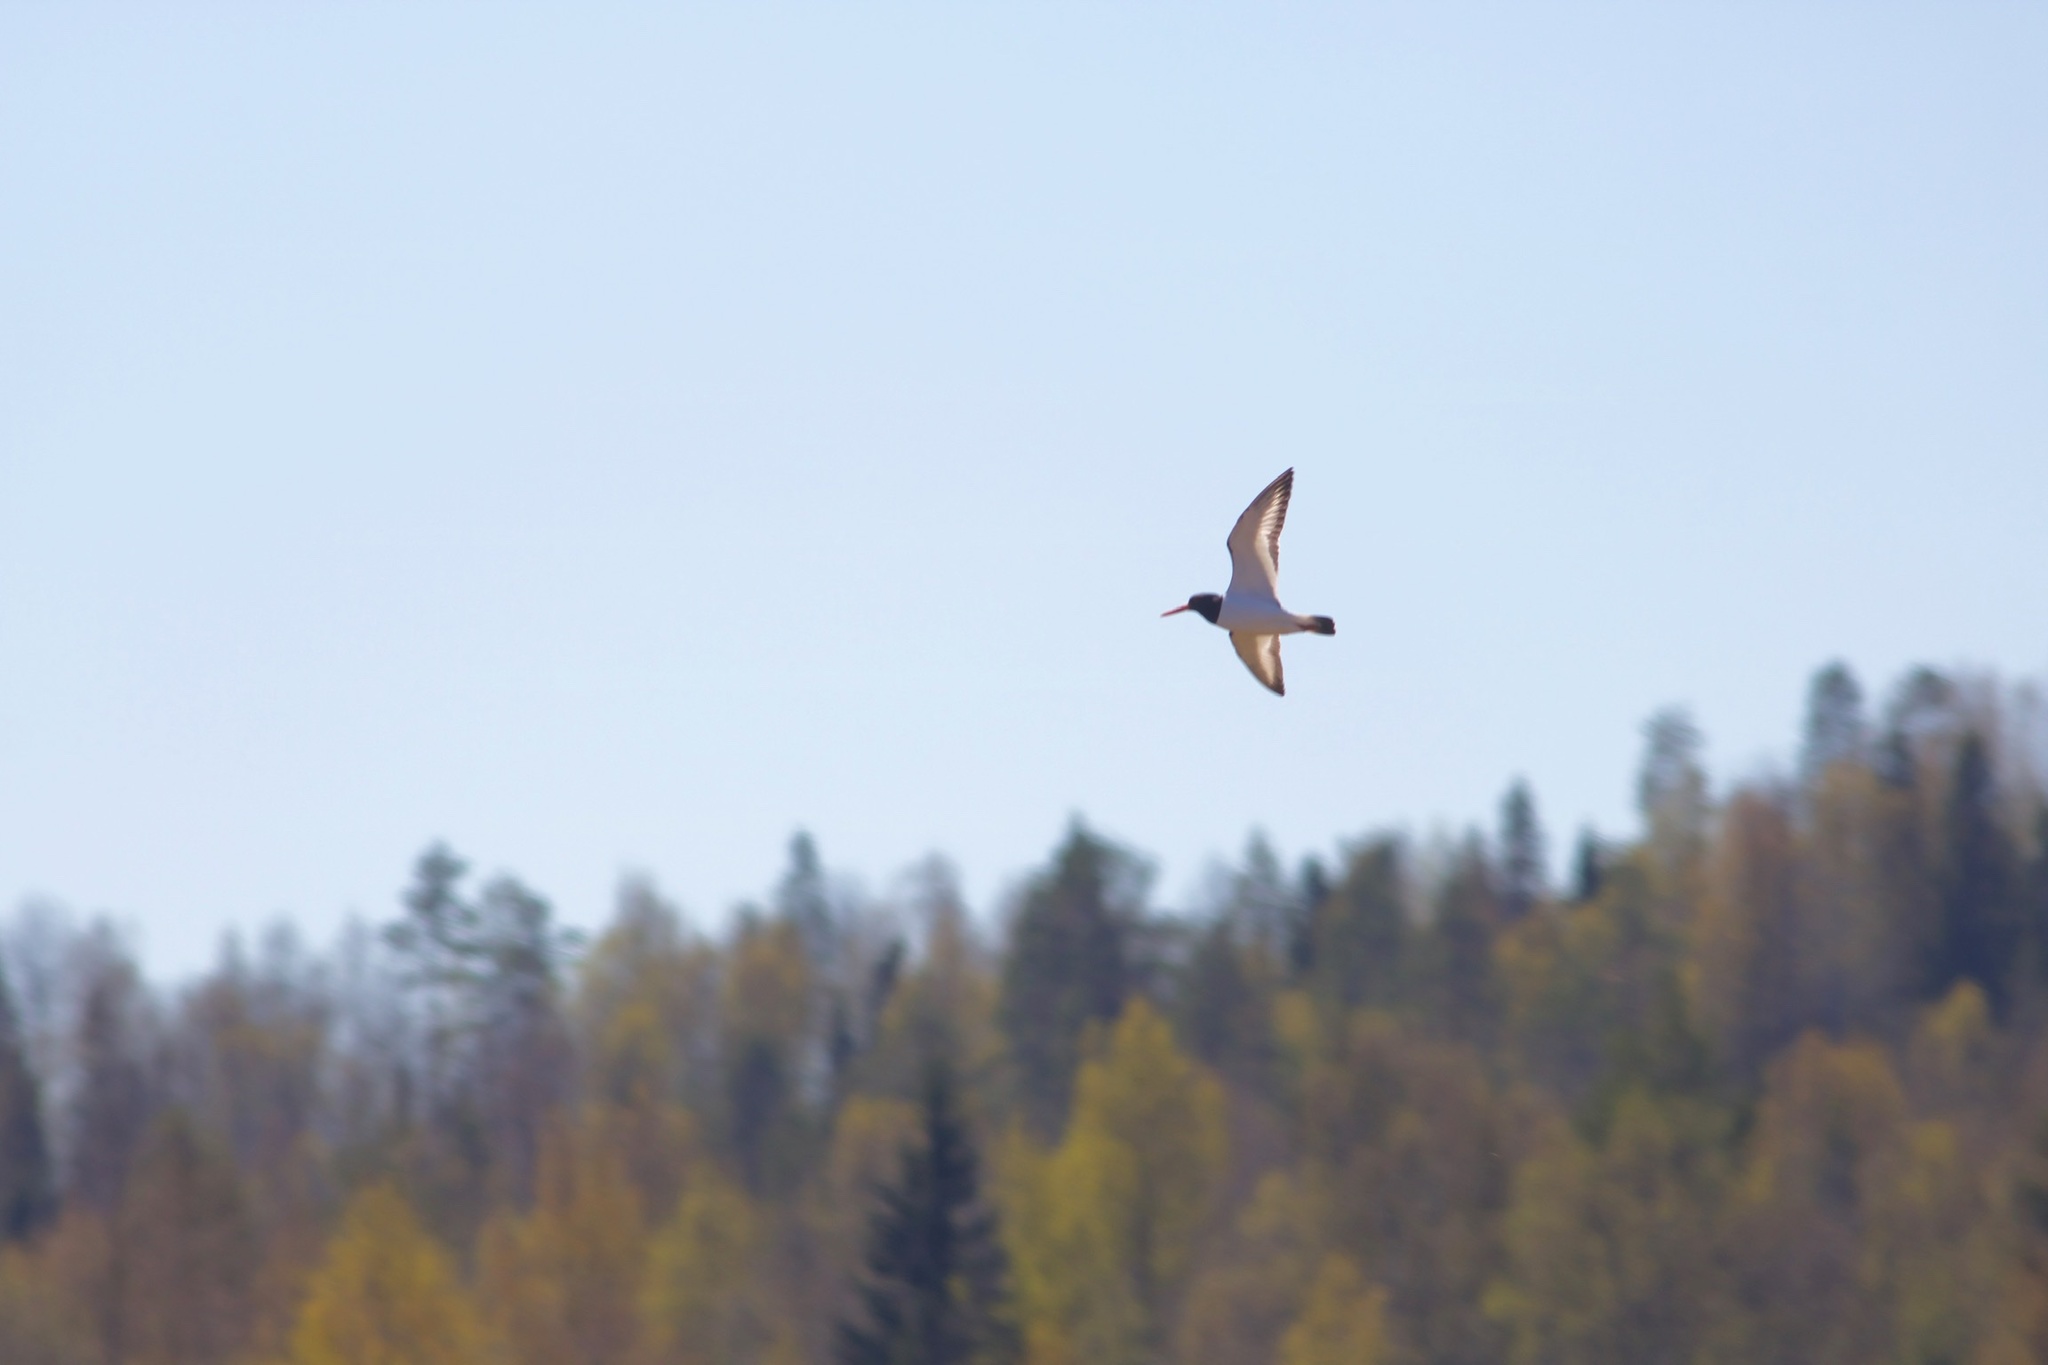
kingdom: Animalia
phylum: Chordata
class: Aves
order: Charadriiformes
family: Haematopodidae
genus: Haematopus
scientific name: Haematopus ostralegus
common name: Eurasian oystercatcher
